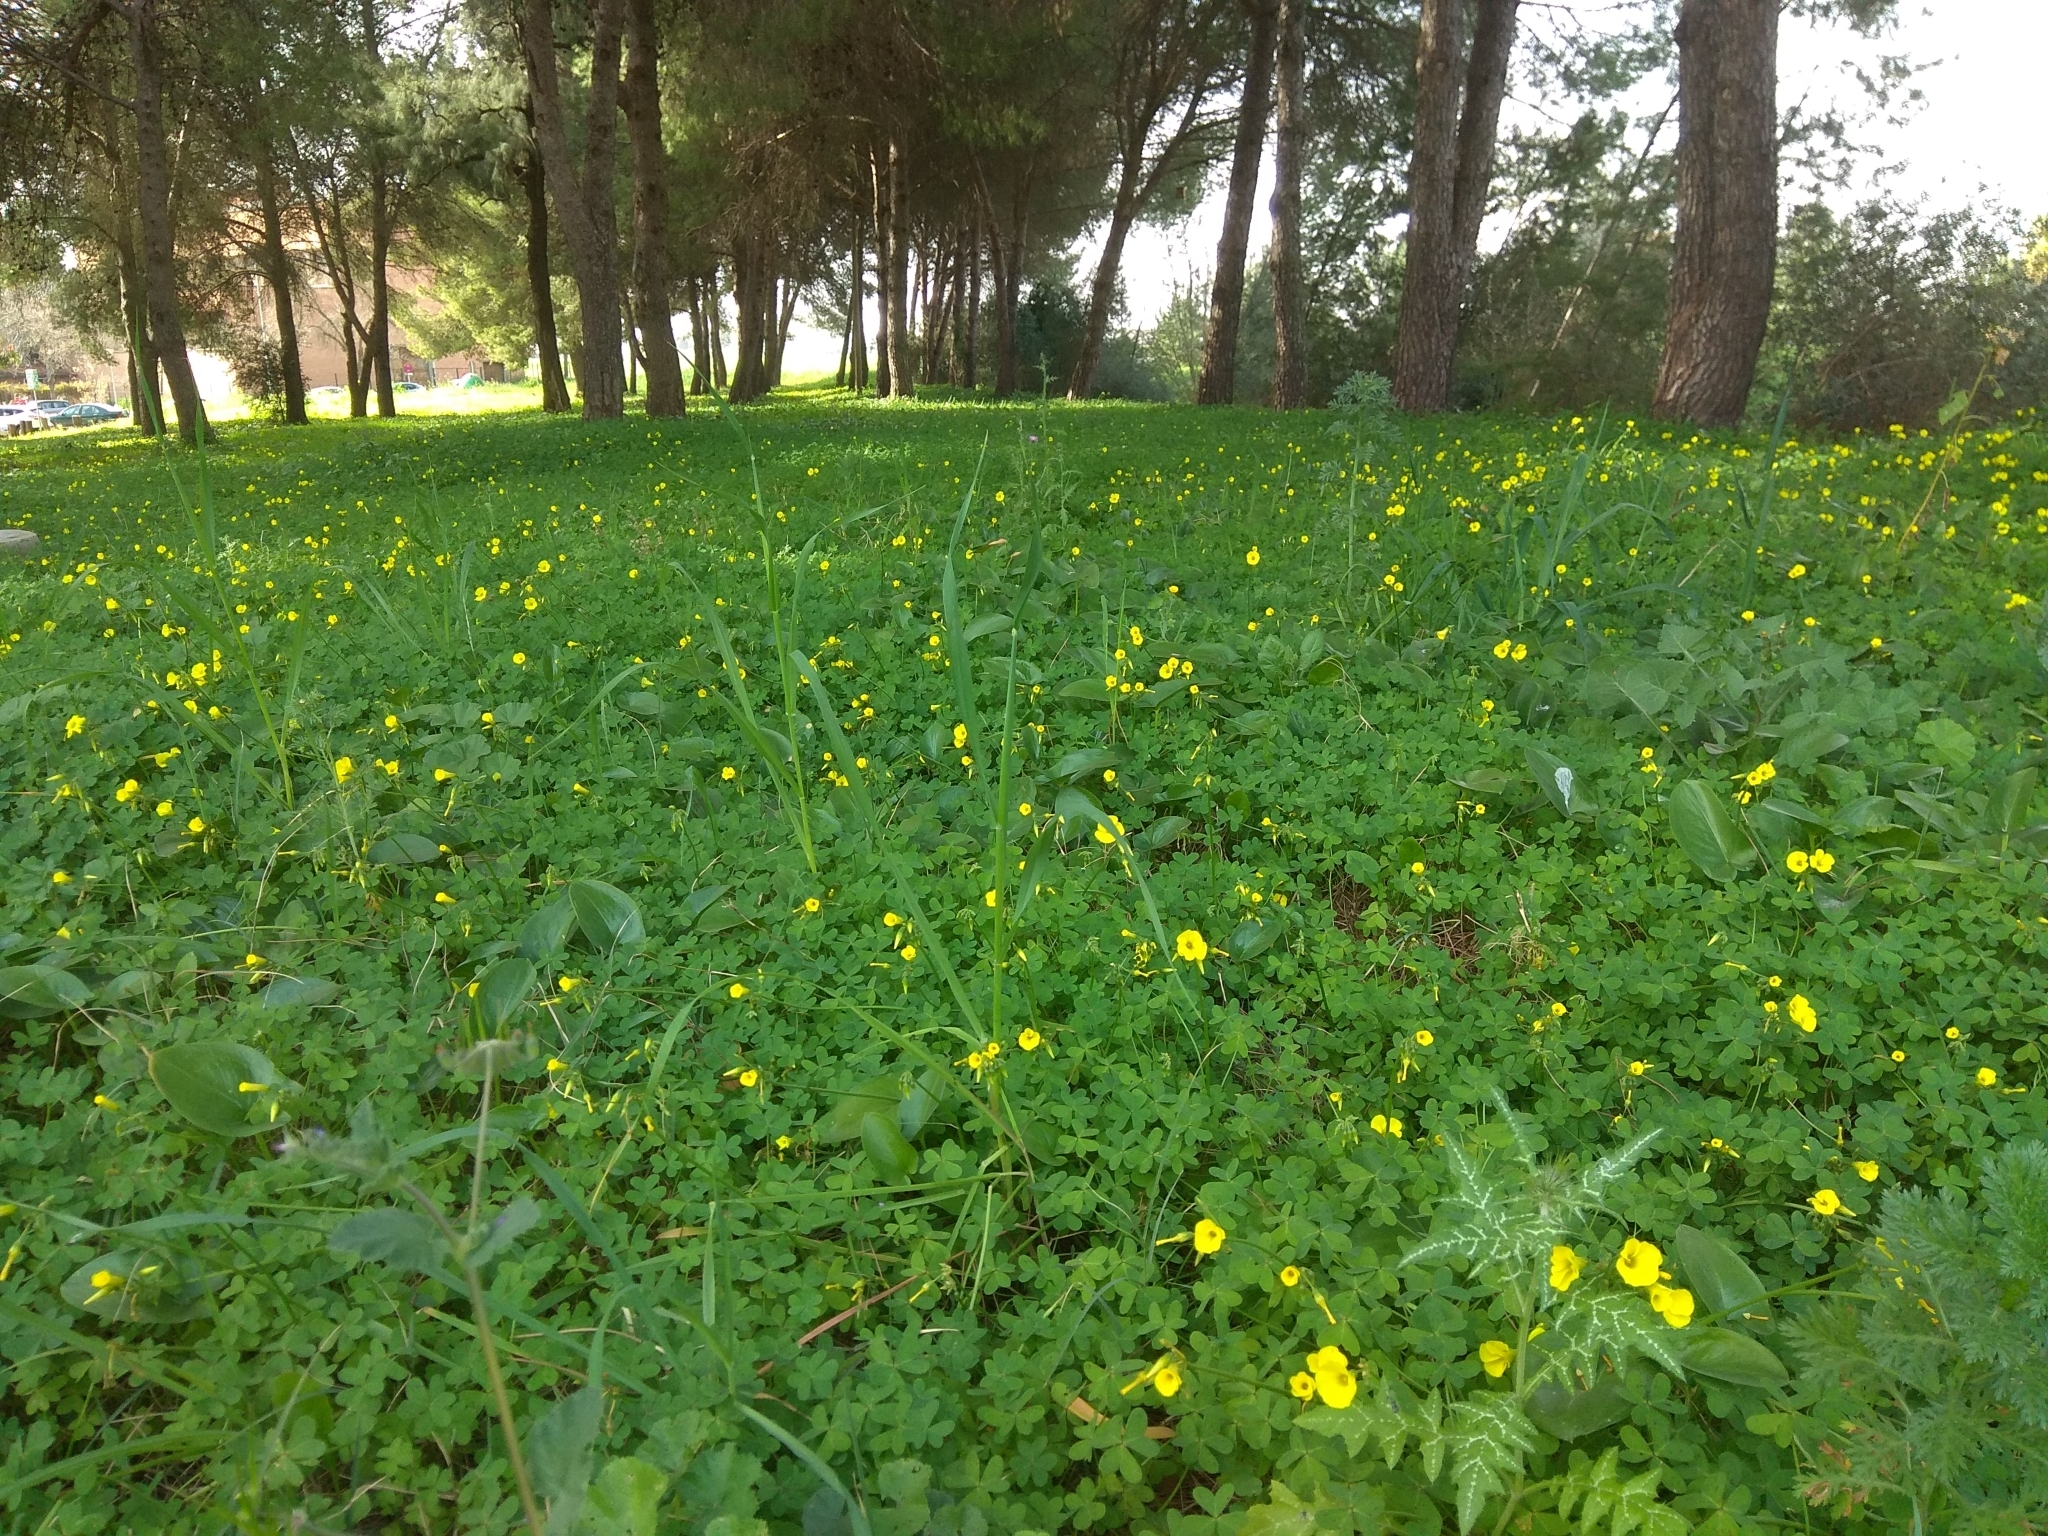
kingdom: Plantae
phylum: Tracheophyta
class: Magnoliopsida
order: Oxalidales
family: Oxalidaceae
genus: Oxalis
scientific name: Oxalis pes-caprae
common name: Bermuda-buttercup
